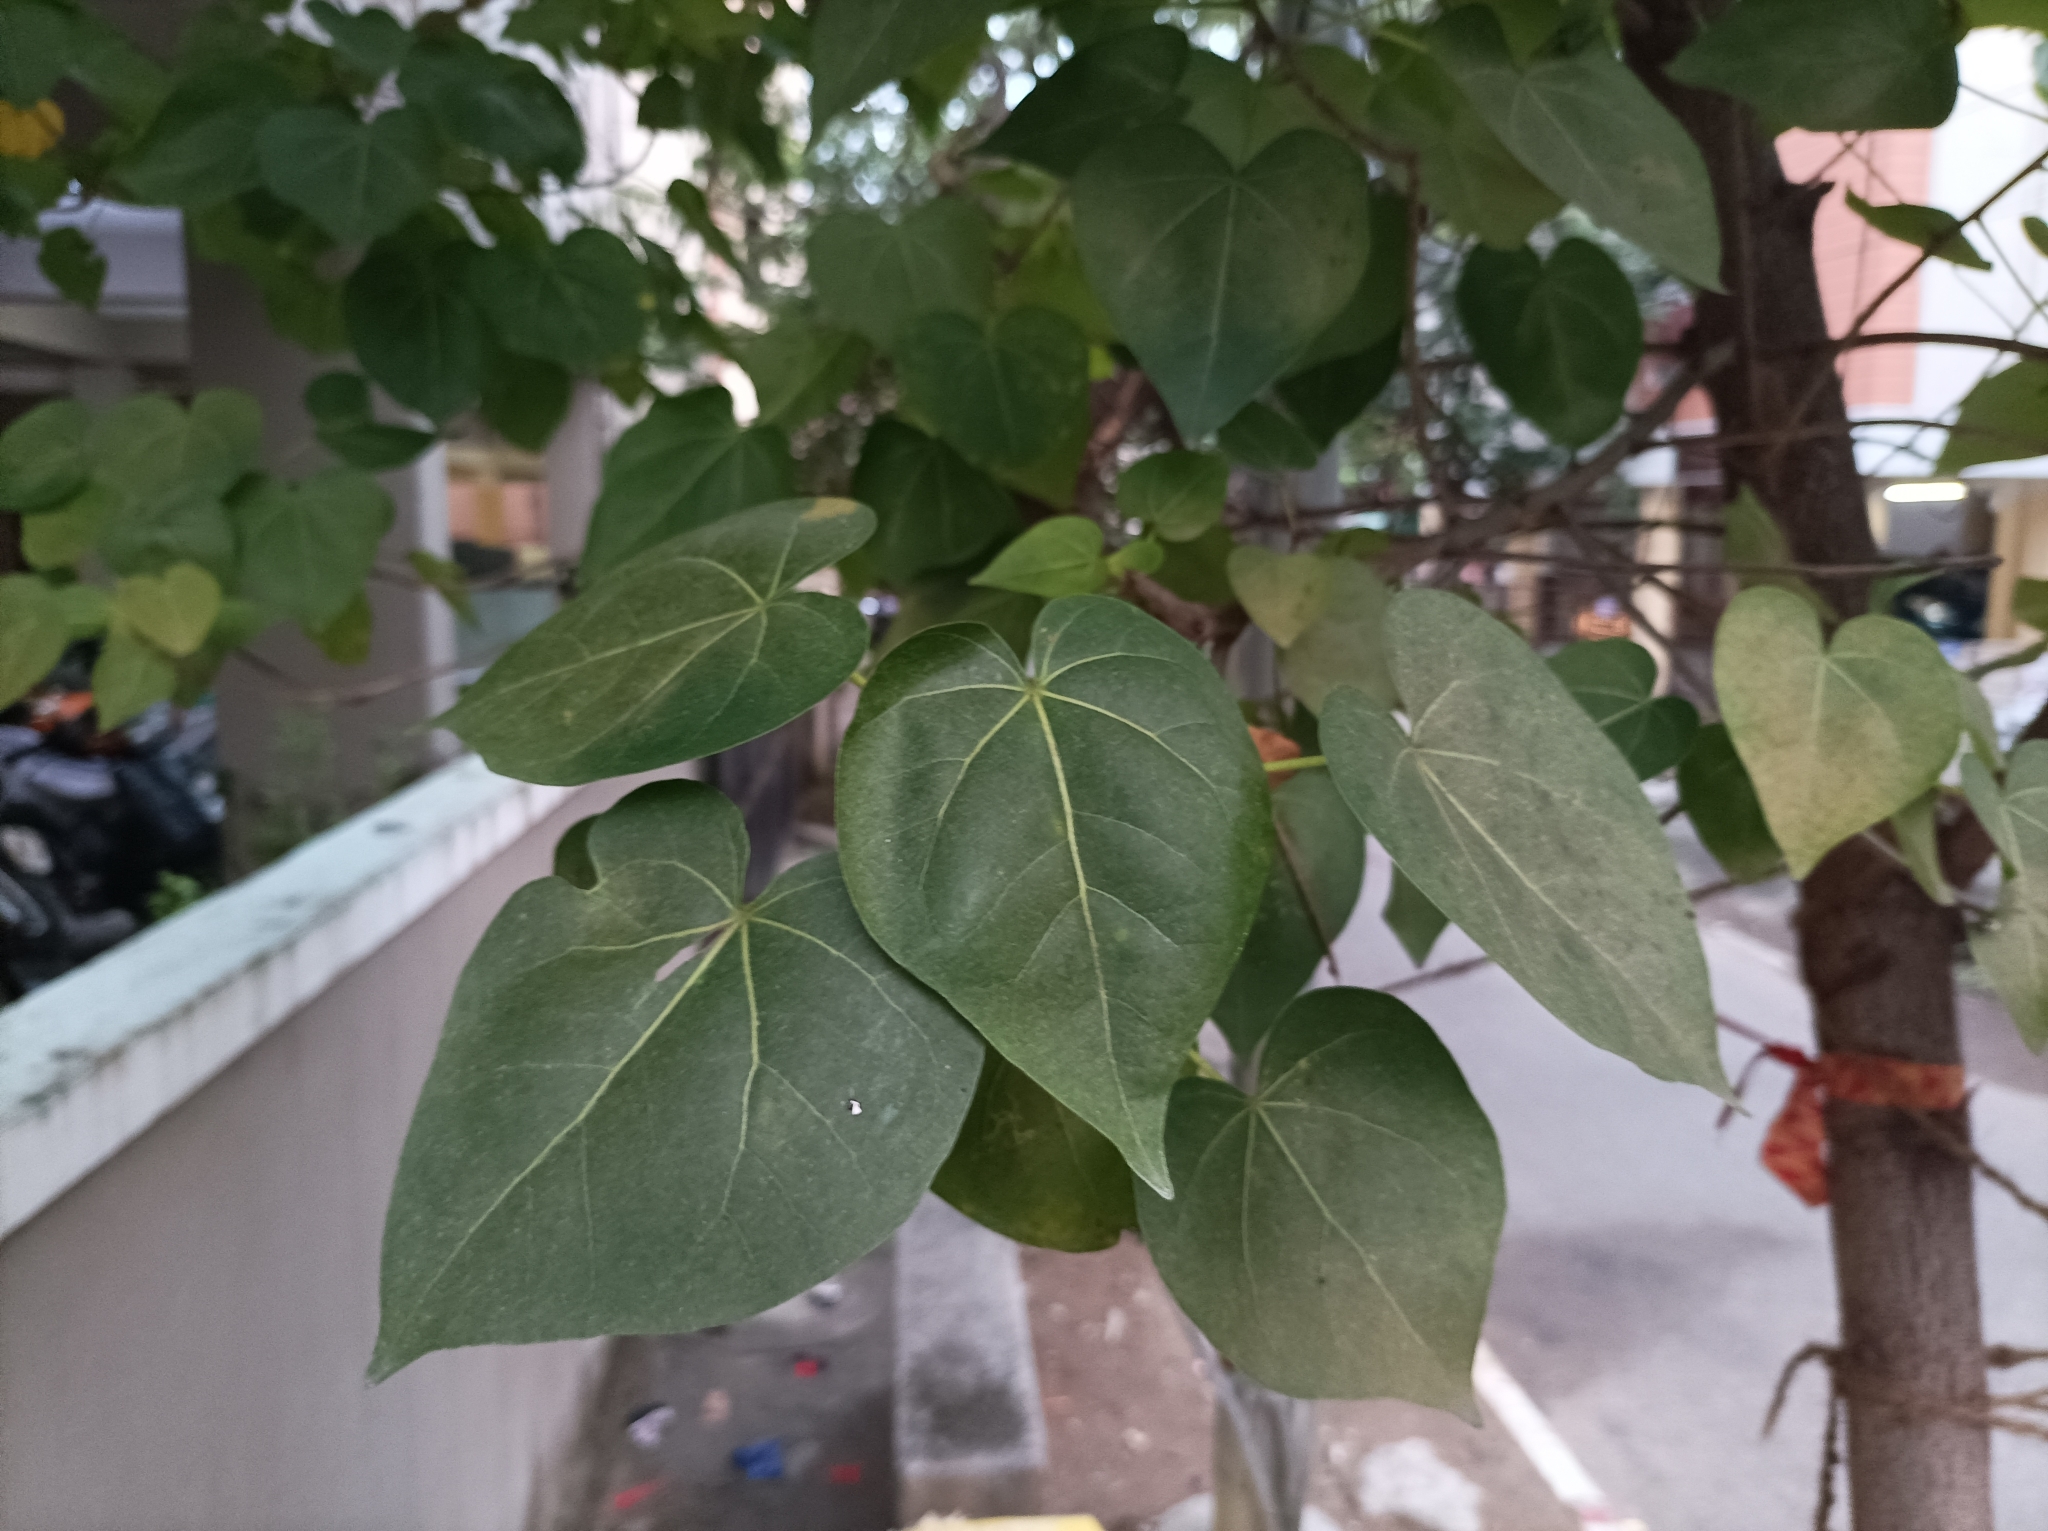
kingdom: Plantae
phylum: Tracheophyta
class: Magnoliopsida
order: Malvales
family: Malvaceae
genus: Thespesia
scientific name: Thespesia populnea
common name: Seaside mahoe
